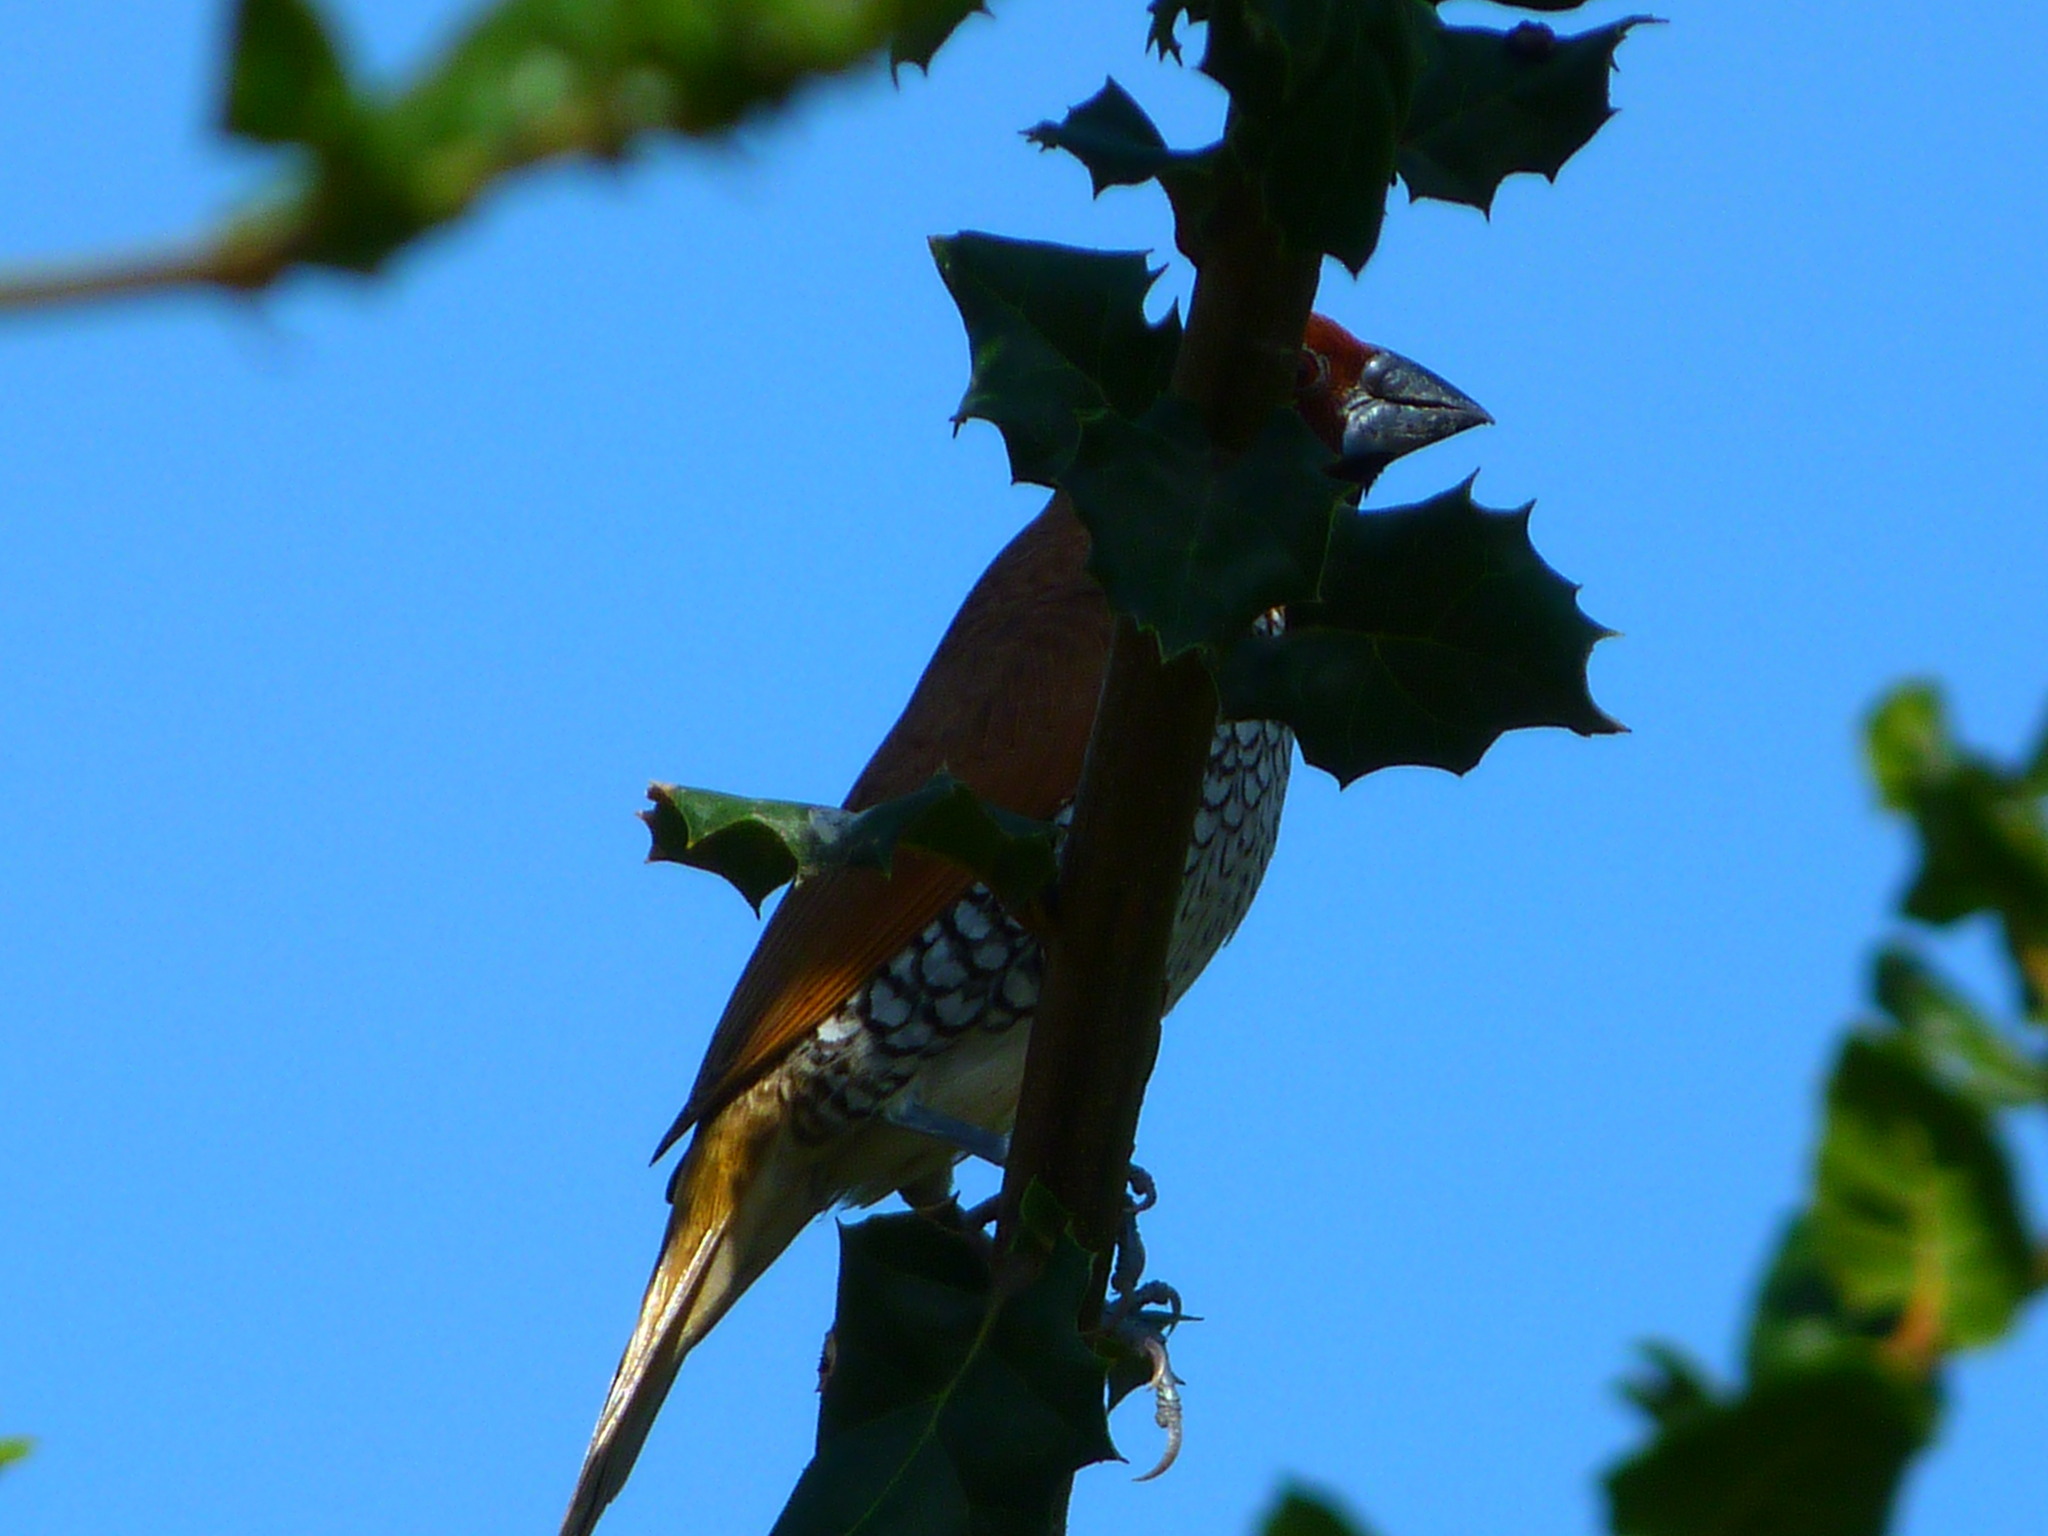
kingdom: Animalia
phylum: Chordata
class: Aves
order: Passeriformes
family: Estrildidae
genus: Lonchura
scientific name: Lonchura punctulata
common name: Scaly-breasted munia
